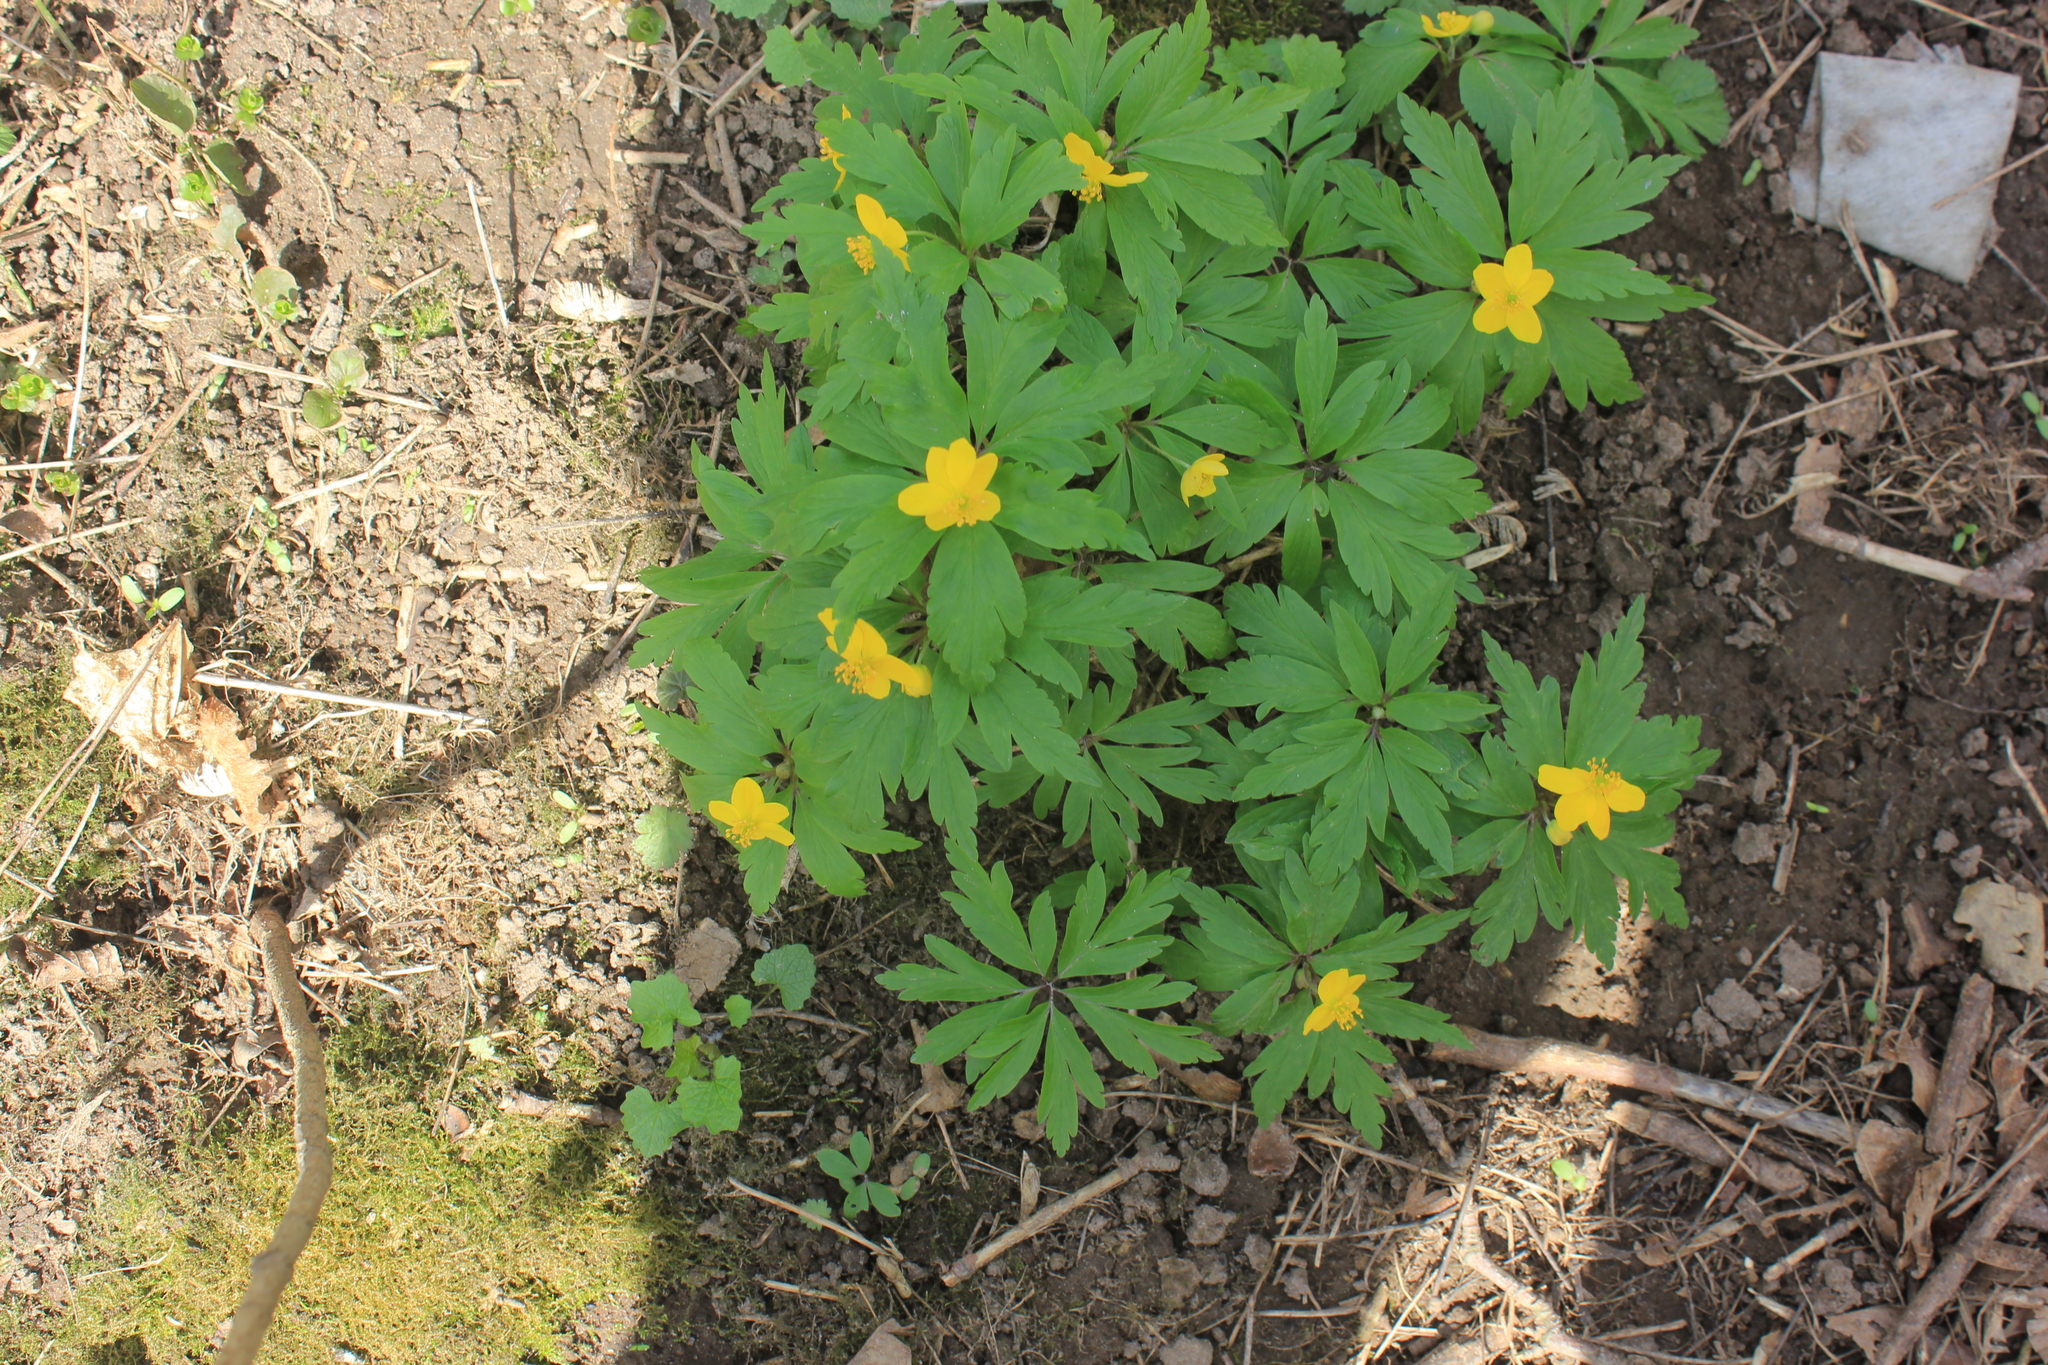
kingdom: Plantae
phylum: Tracheophyta
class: Magnoliopsida
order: Ranunculales
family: Ranunculaceae
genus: Anemone
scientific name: Anemone ranunculoides
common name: Yellow anemone
